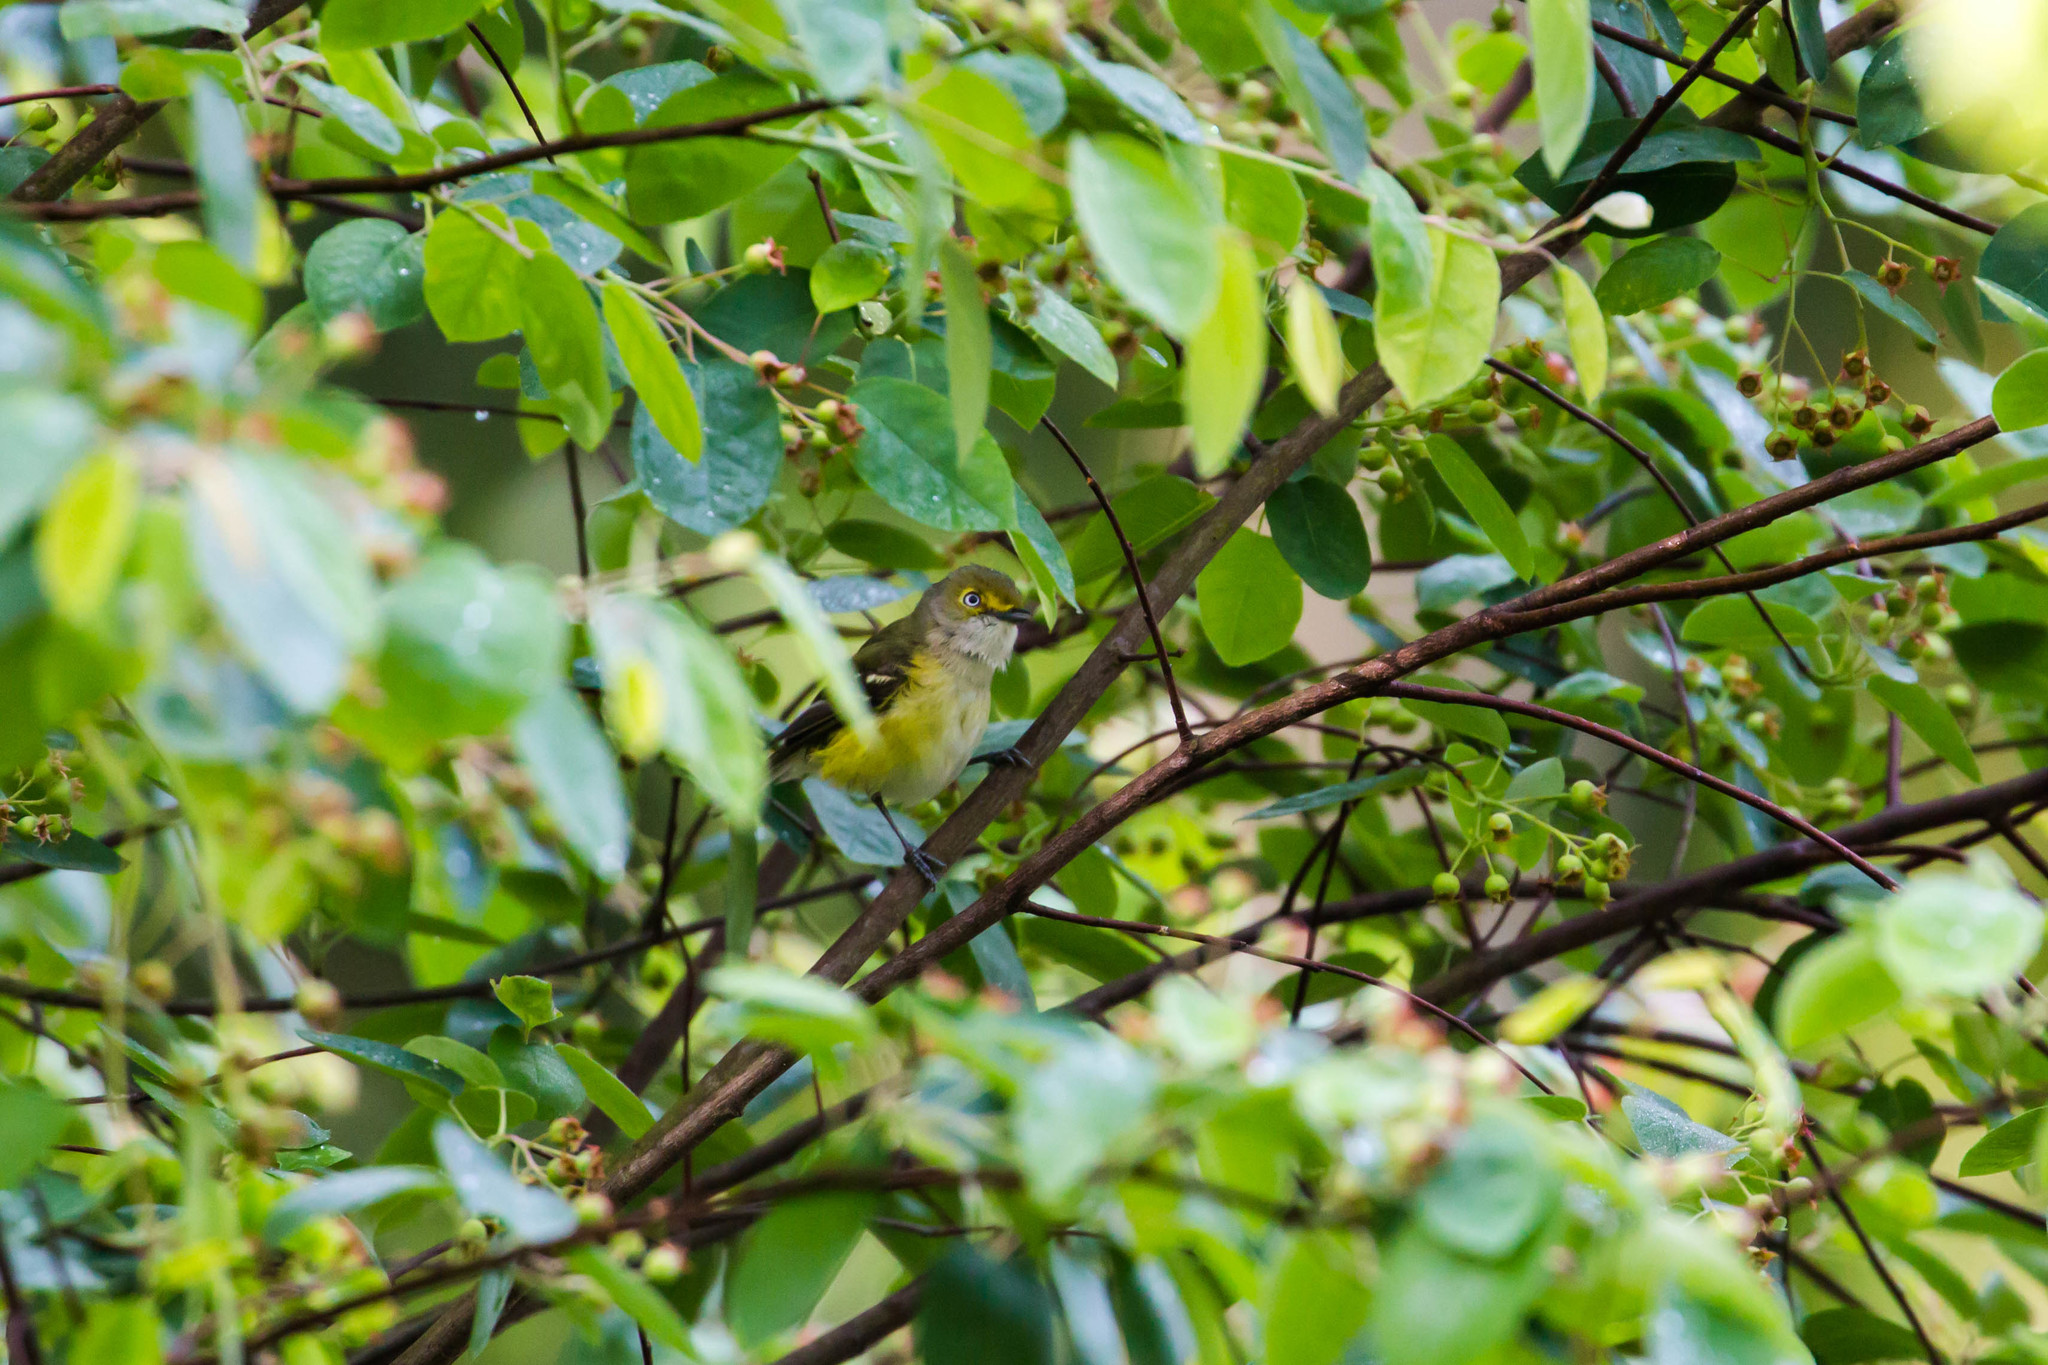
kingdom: Animalia
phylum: Chordata
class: Aves
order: Passeriformes
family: Vireonidae
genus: Vireo
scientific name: Vireo griseus
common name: White-eyed vireo
